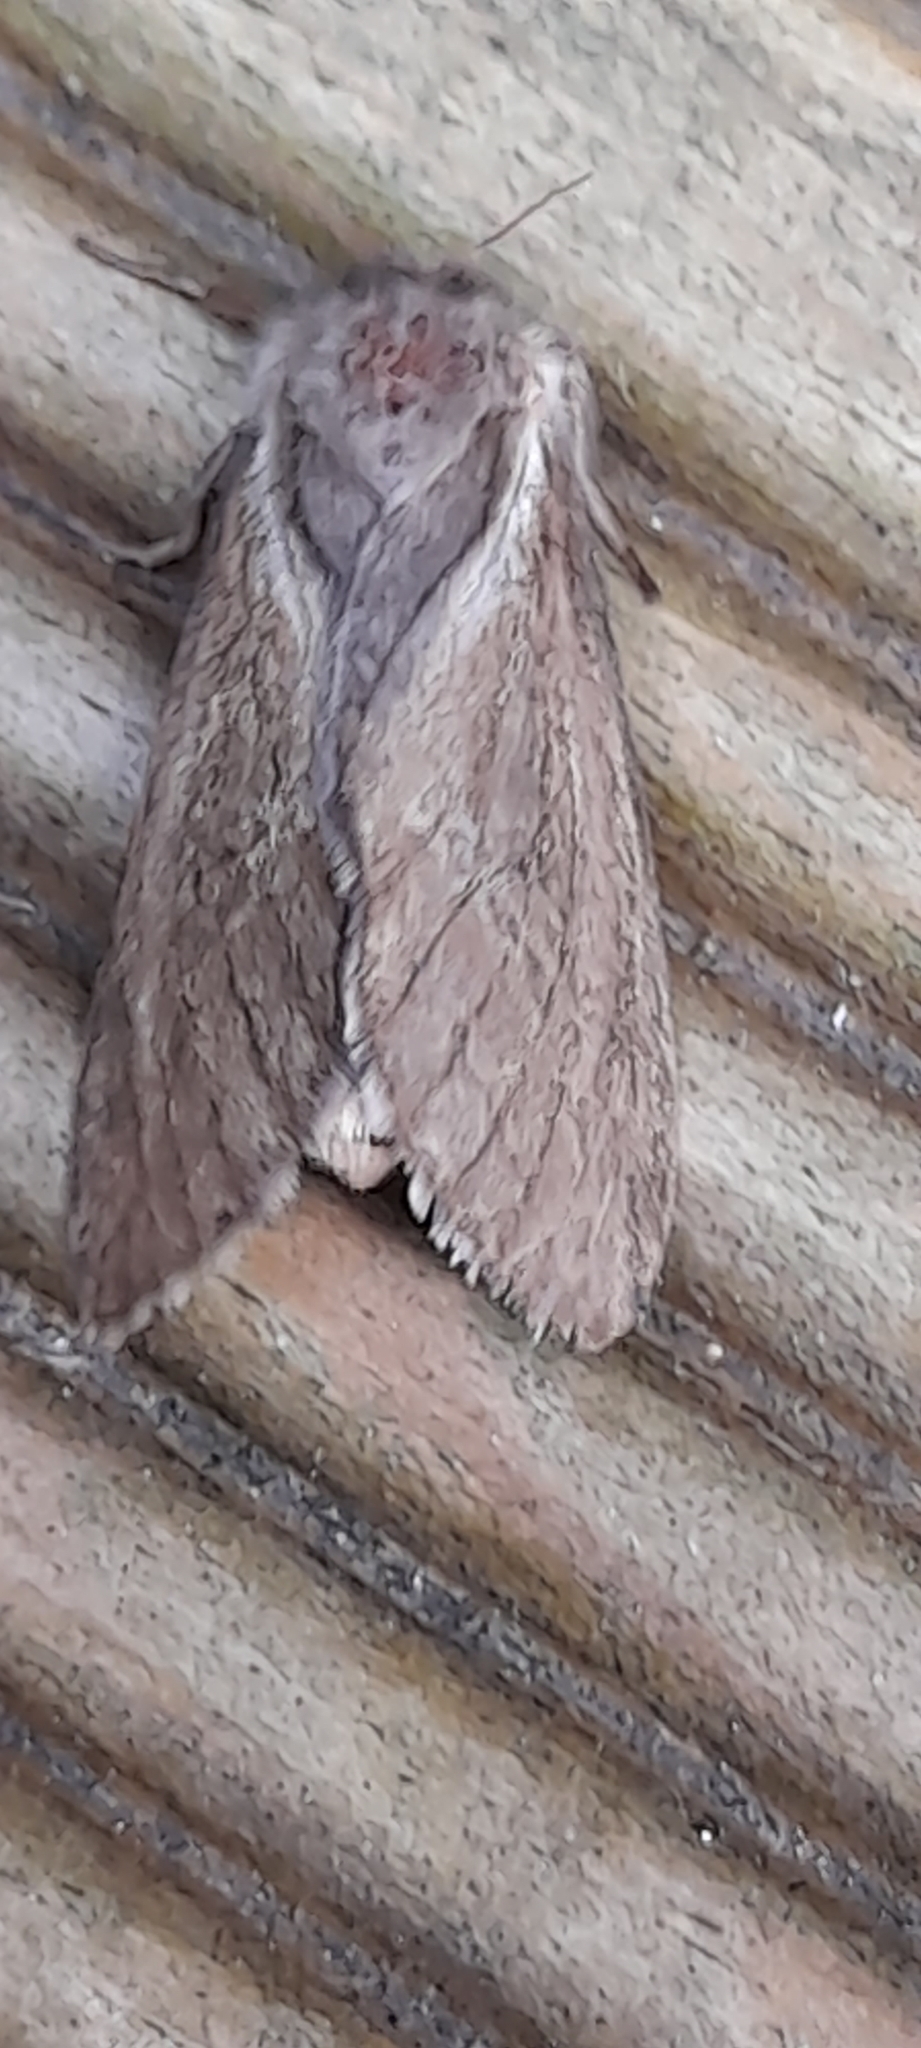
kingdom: Animalia
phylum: Arthropoda
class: Insecta
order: Lepidoptera
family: Hepialidae
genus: Korscheltellus
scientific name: Korscheltellus lupulina
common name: Common swift
